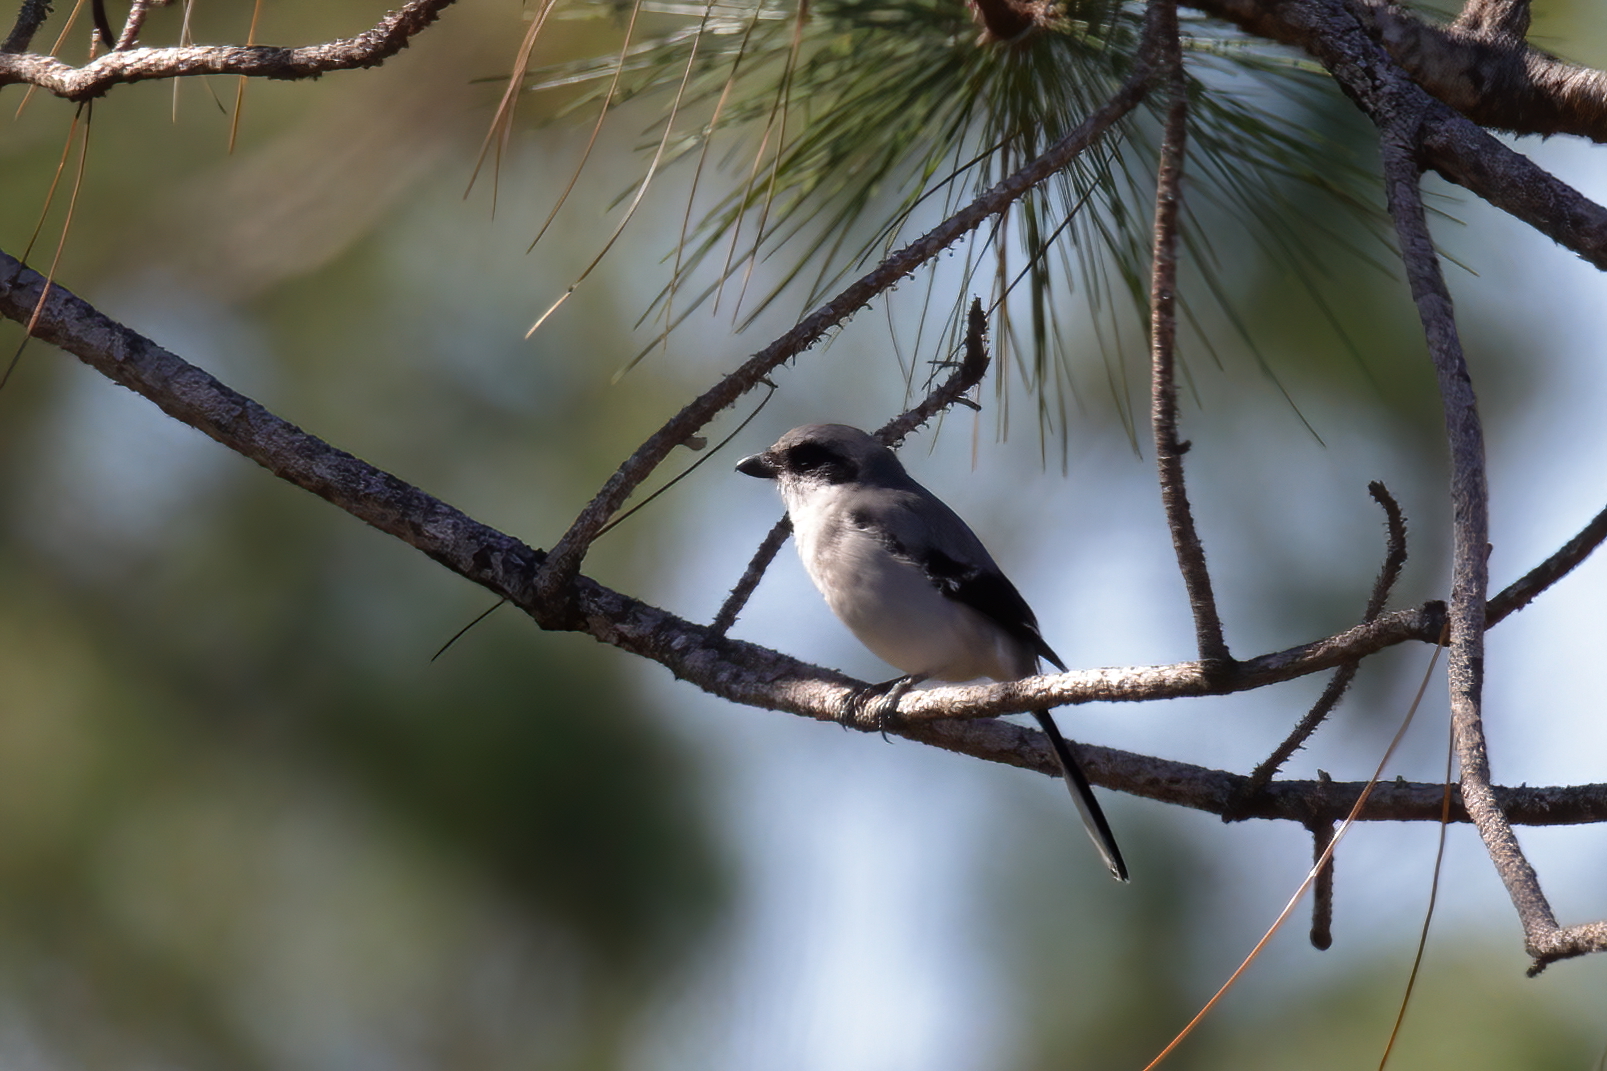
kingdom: Animalia
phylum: Chordata
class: Aves
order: Passeriformes
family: Laniidae
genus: Lanius
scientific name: Lanius ludovicianus
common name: Loggerhead shrike
